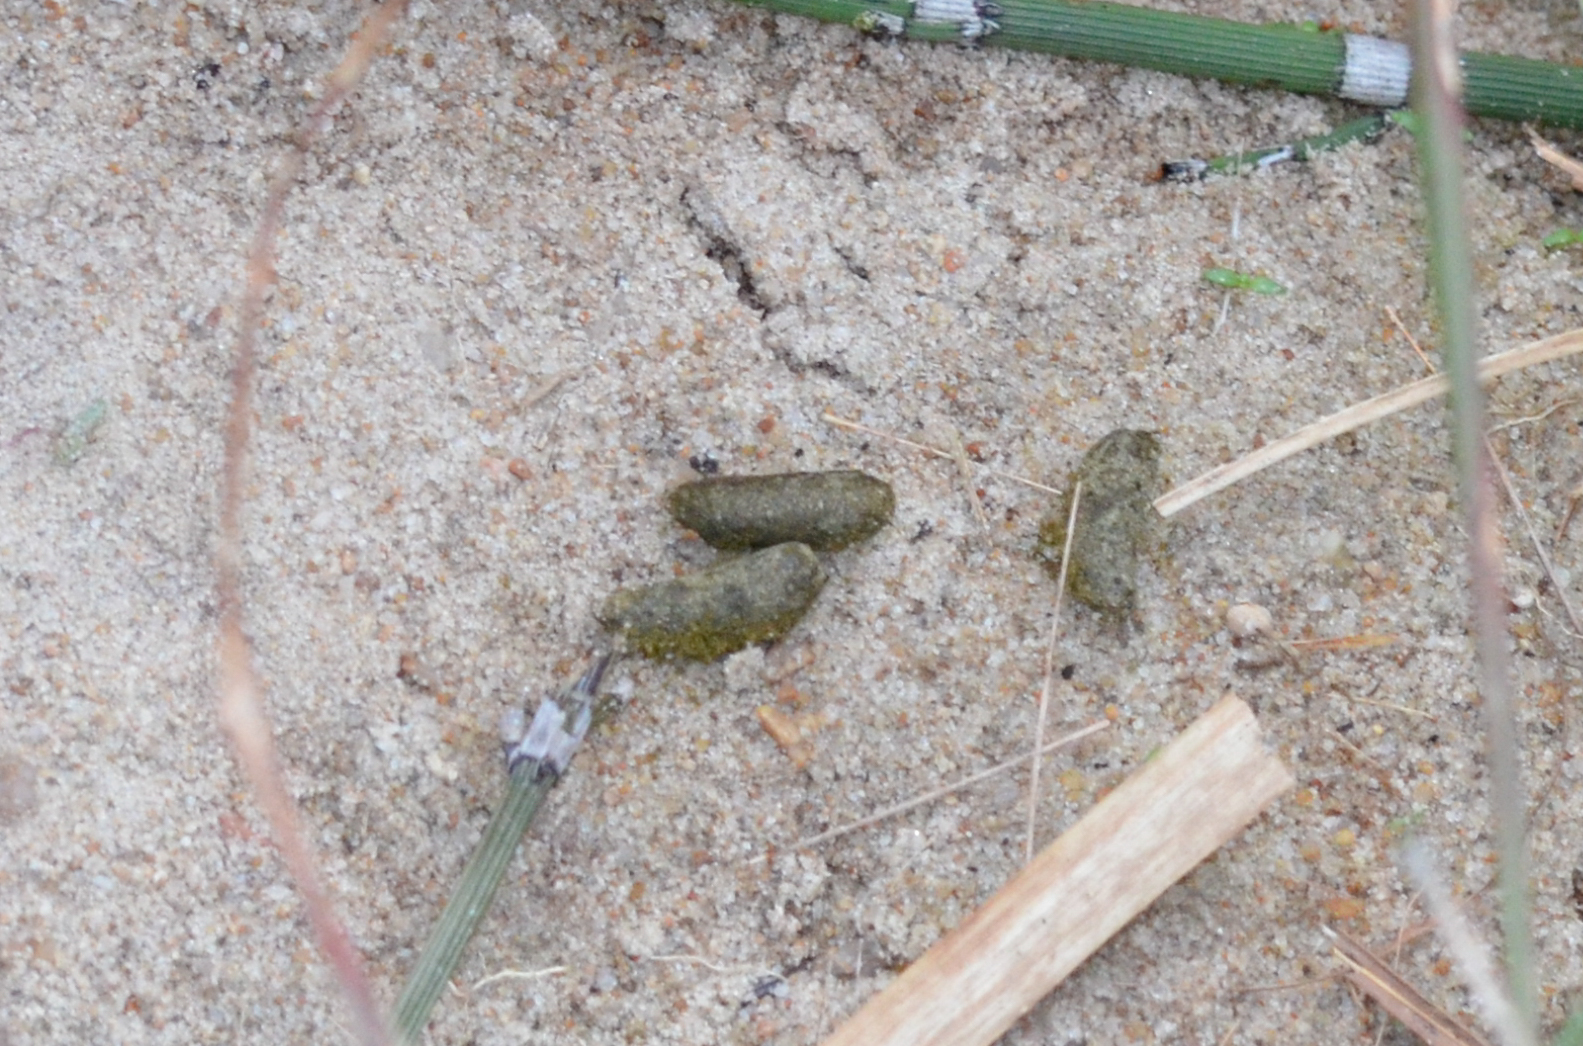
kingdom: Animalia
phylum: Chordata
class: Mammalia
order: Rodentia
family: Caviidae
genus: Cavia
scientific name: Cavia aperea
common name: Brazilian guinea pig
